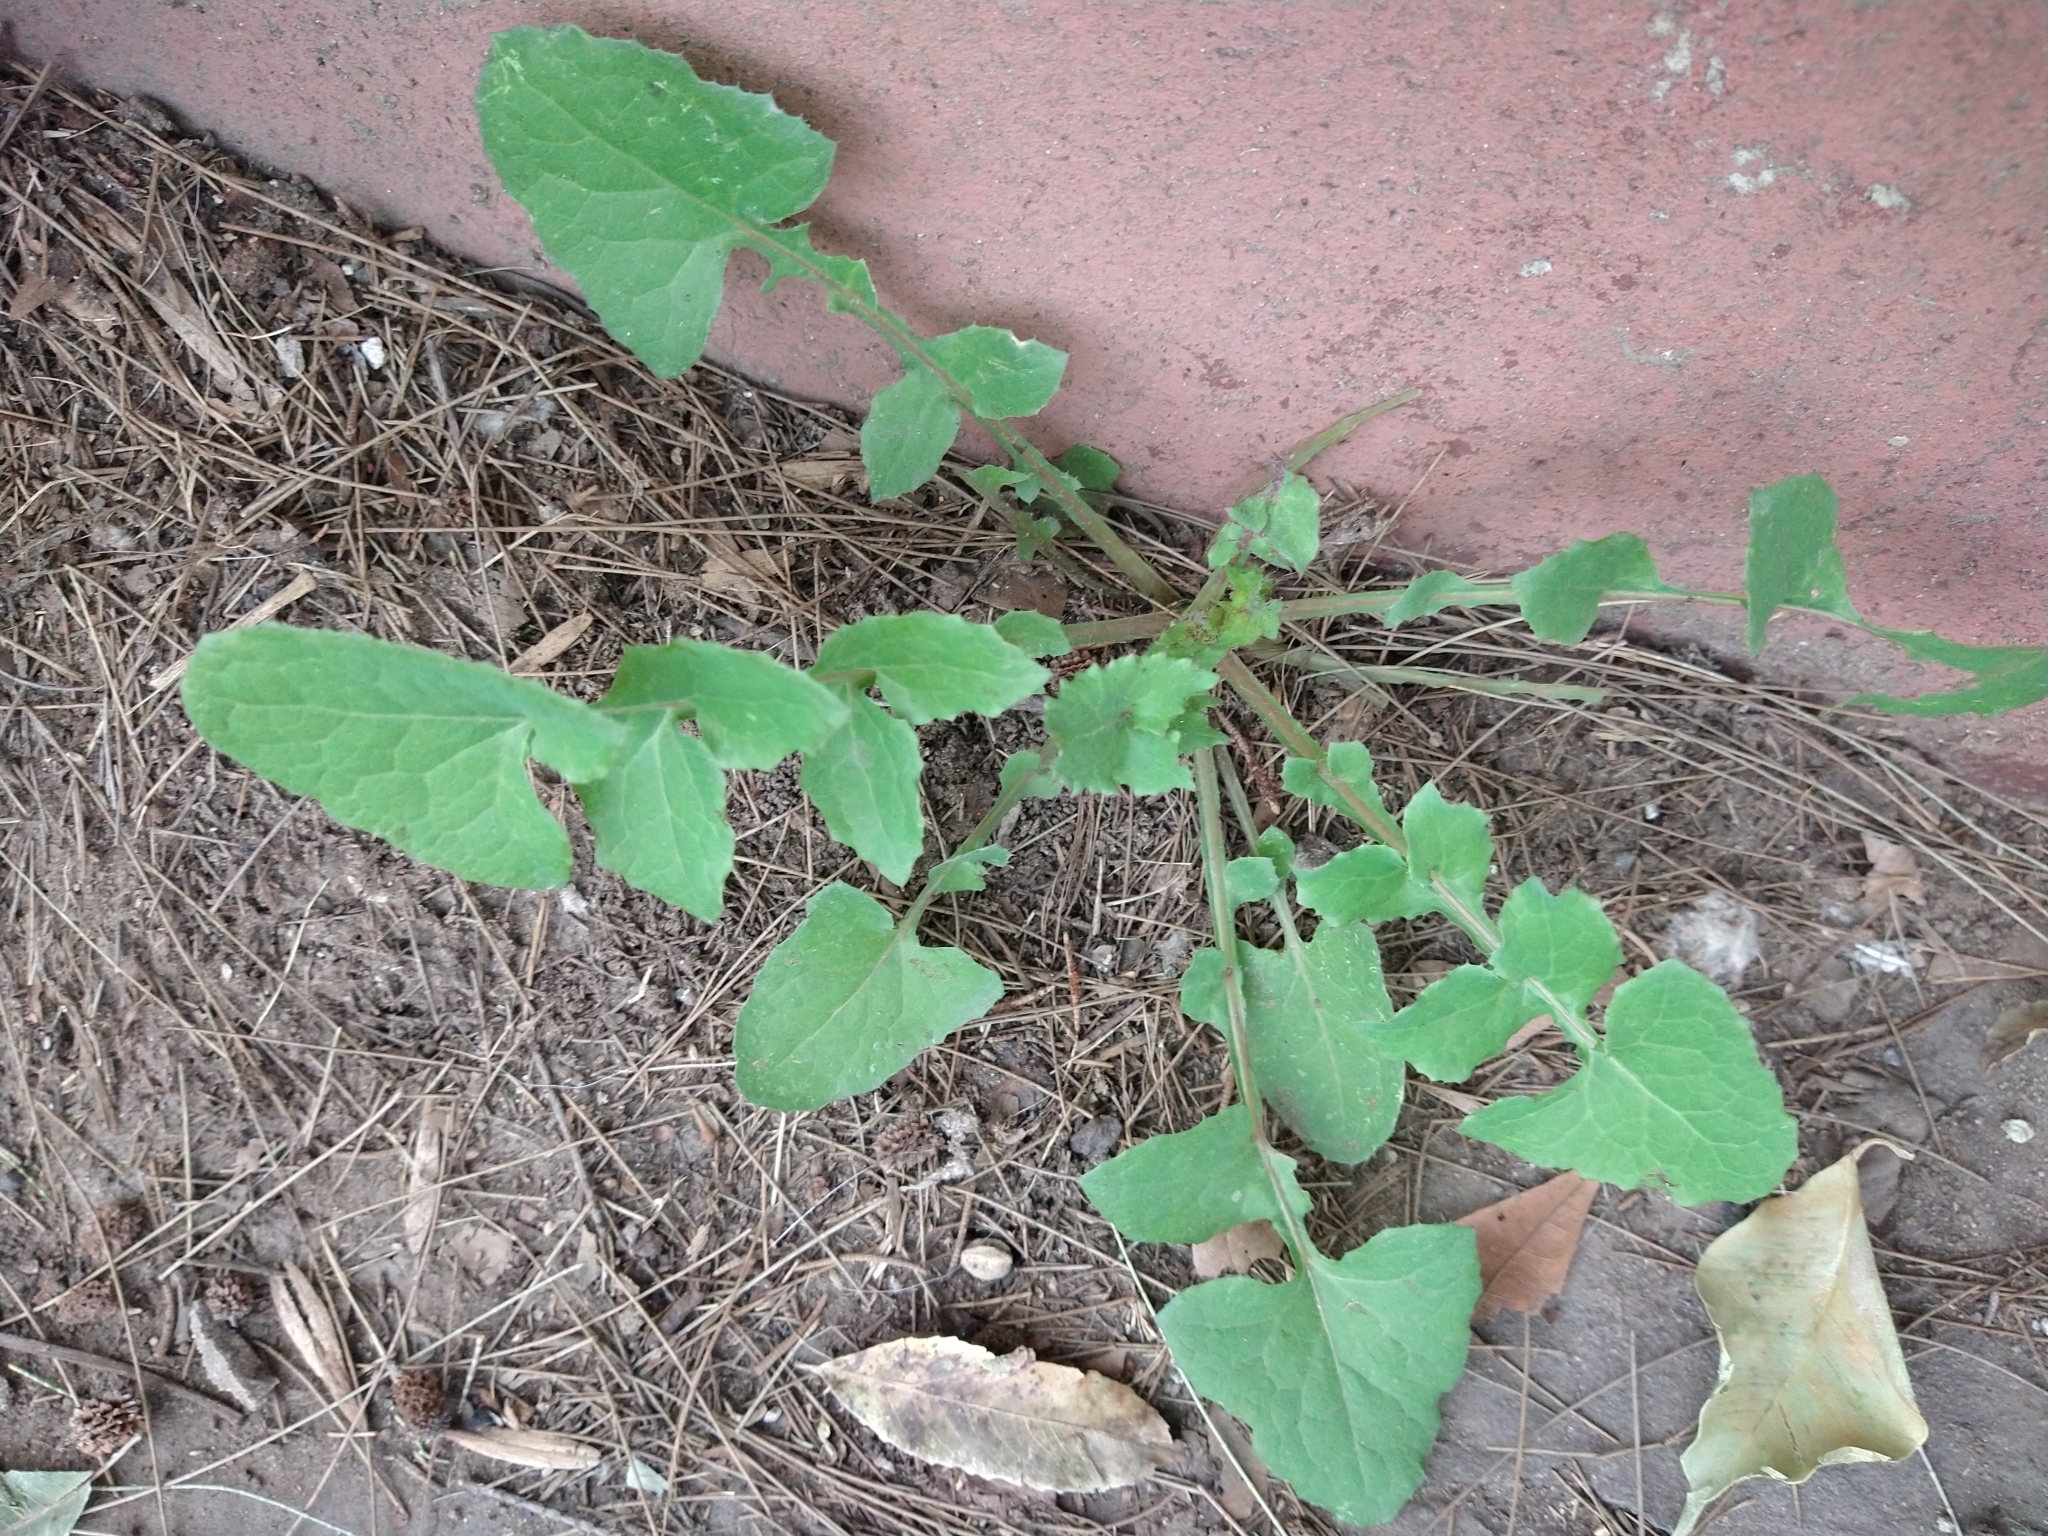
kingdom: Plantae
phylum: Tracheophyta
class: Magnoliopsida
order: Asterales
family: Asteraceae
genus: Sonchus
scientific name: Sonchus oleraceus
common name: Common sowthistle
